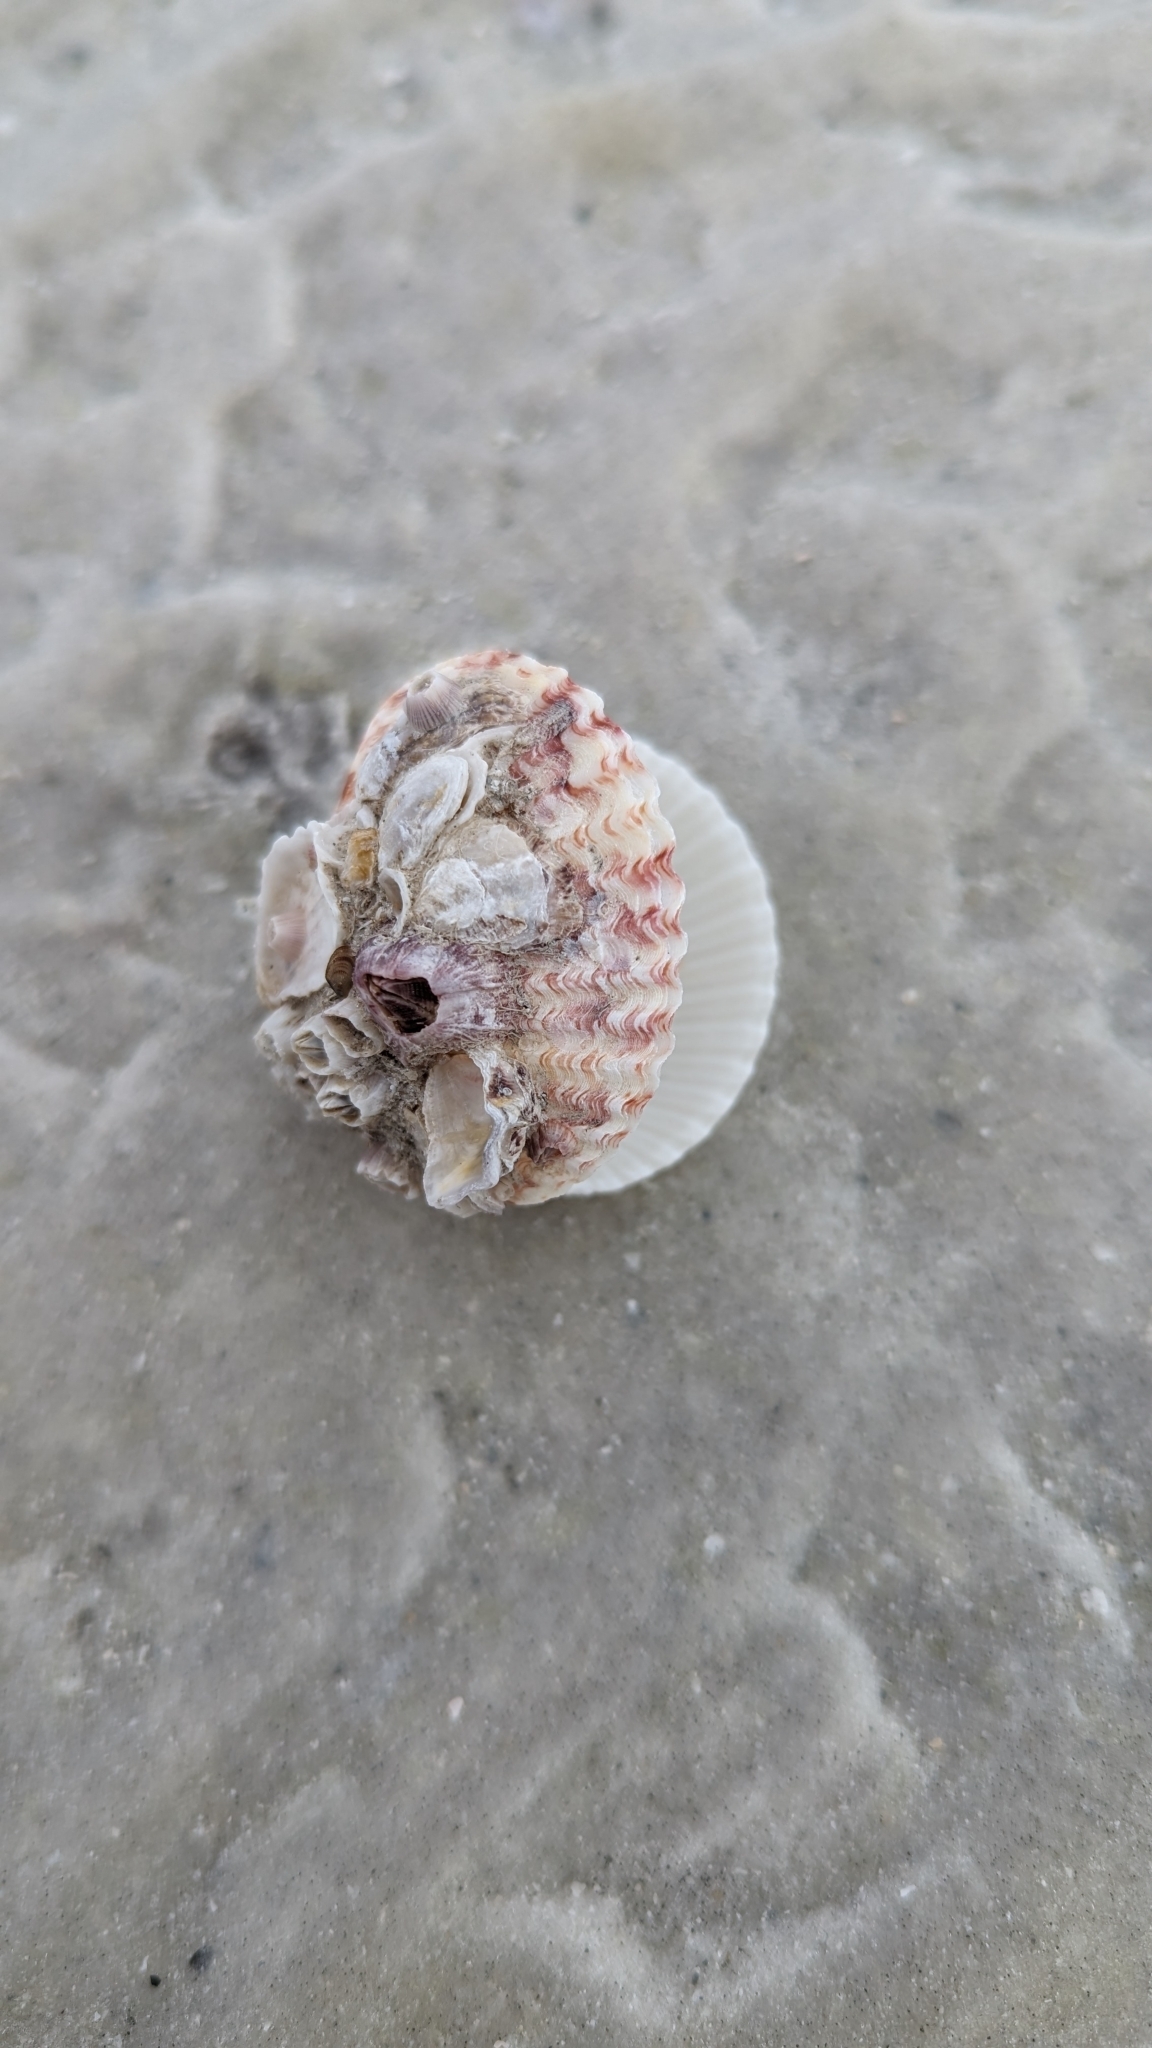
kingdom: Animalia
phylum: Mollusca
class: Bivalvia
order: Pectinida
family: Pectinidae
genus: Argopecten
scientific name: Argopecten gibbus
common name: Atlantic calico scallop
